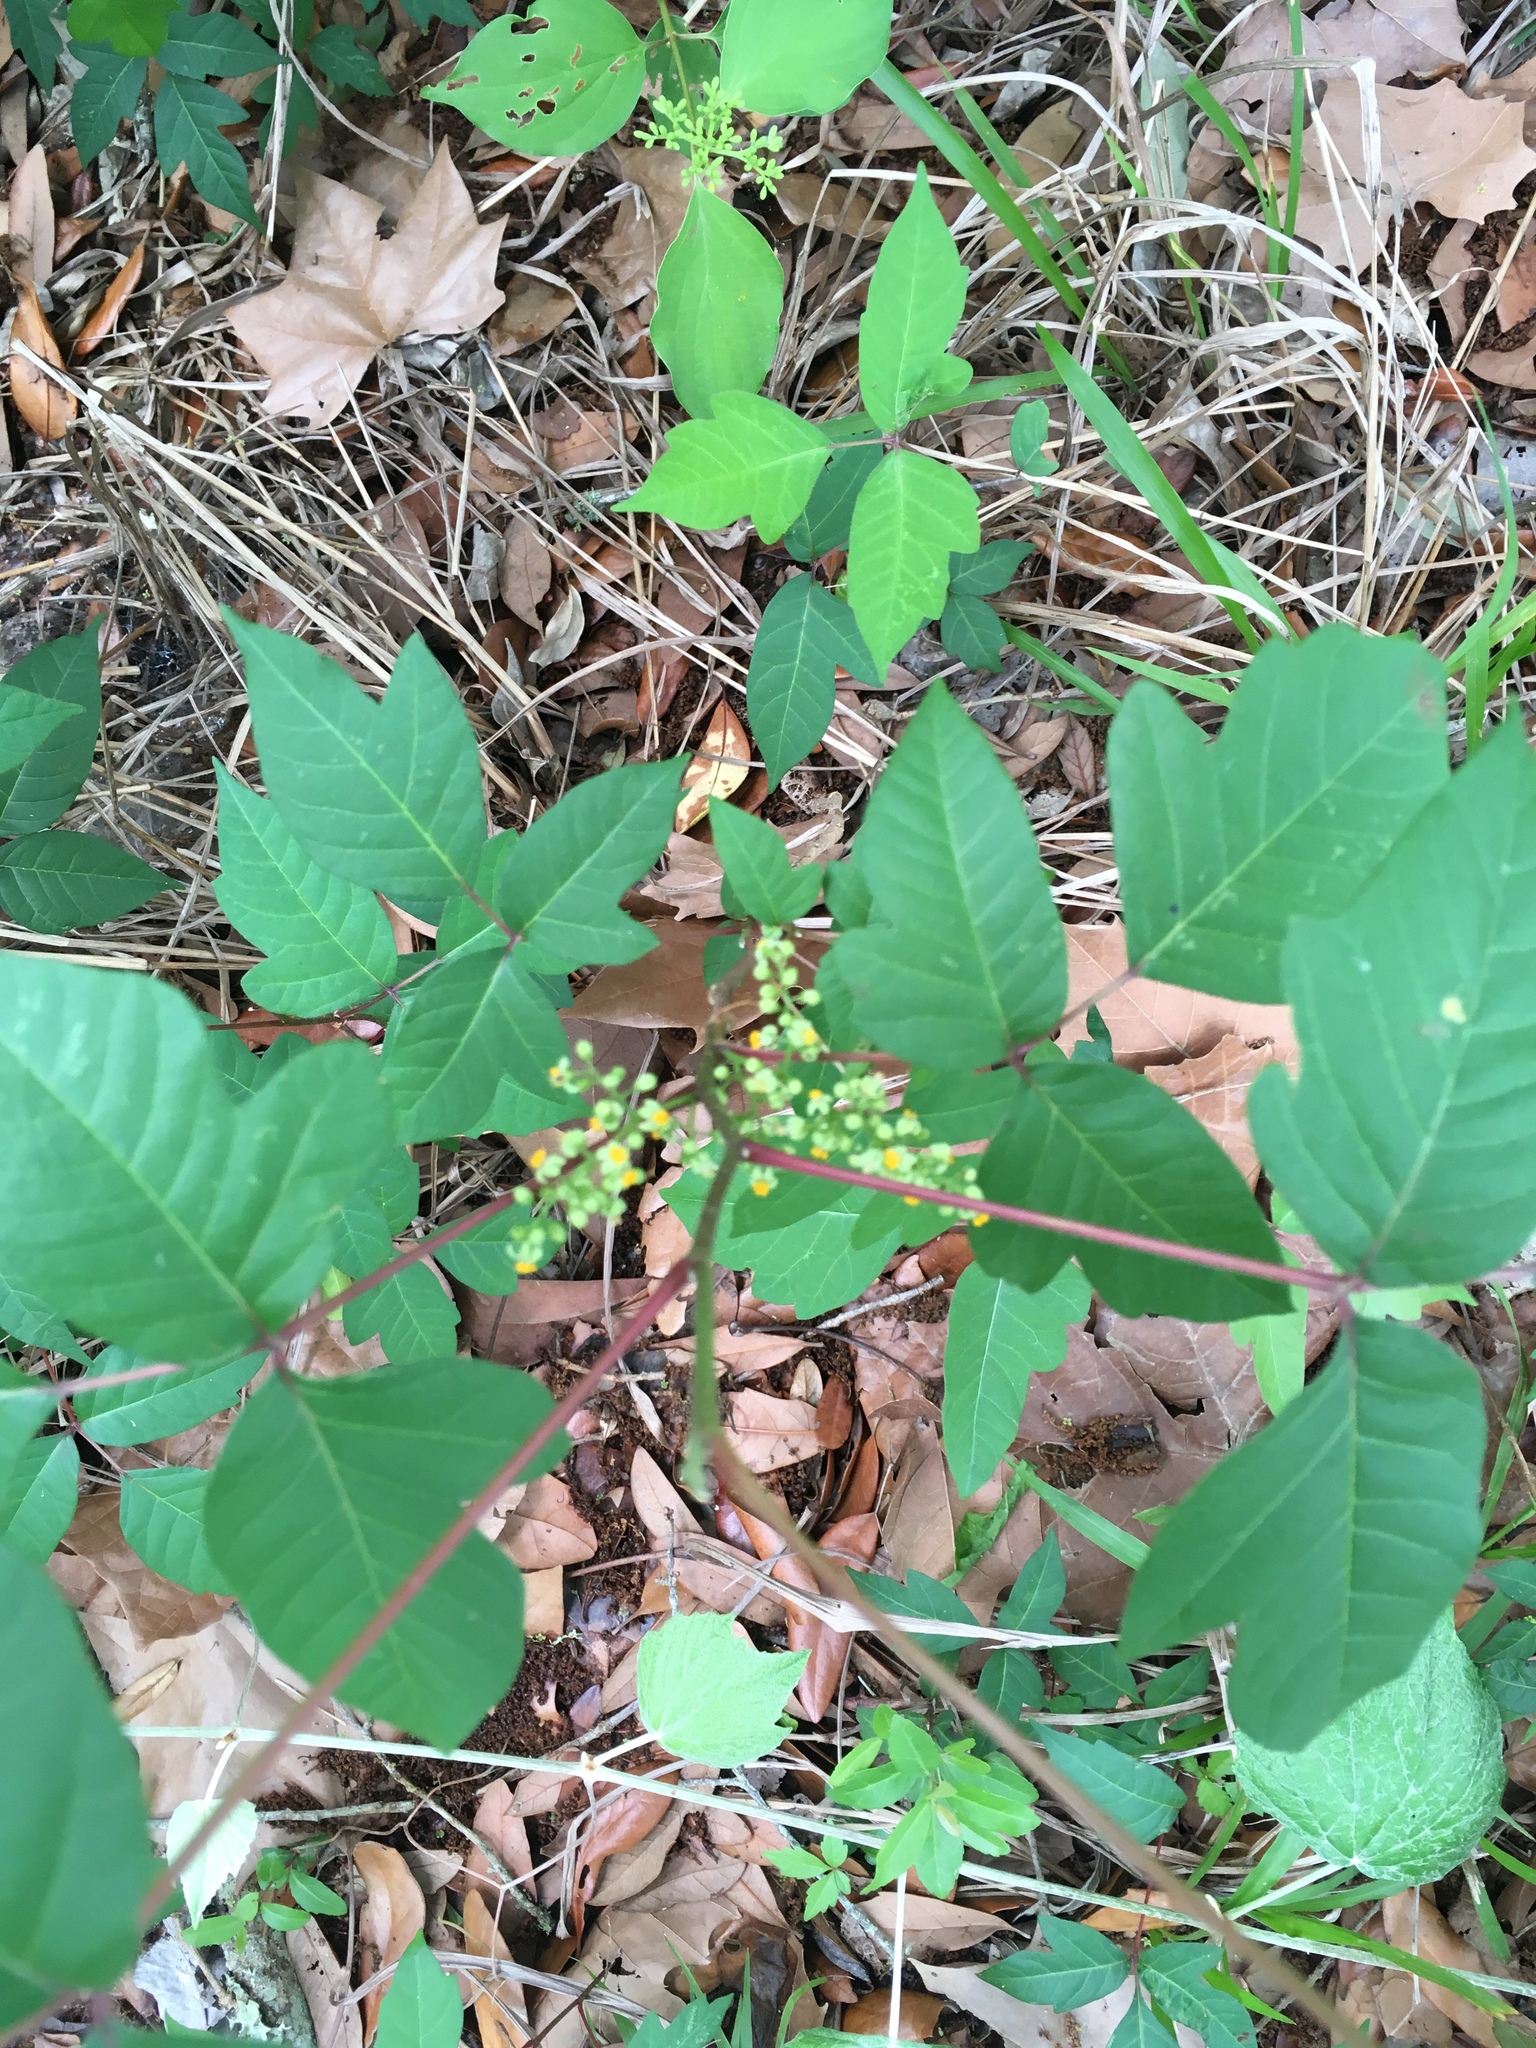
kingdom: Plantae
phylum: Tracheophyta
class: Magnoliopsida
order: Sapindales
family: Anacardiaceae
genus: Toxicodendron
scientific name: Toxicodendron radicans
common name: Poison ivy
